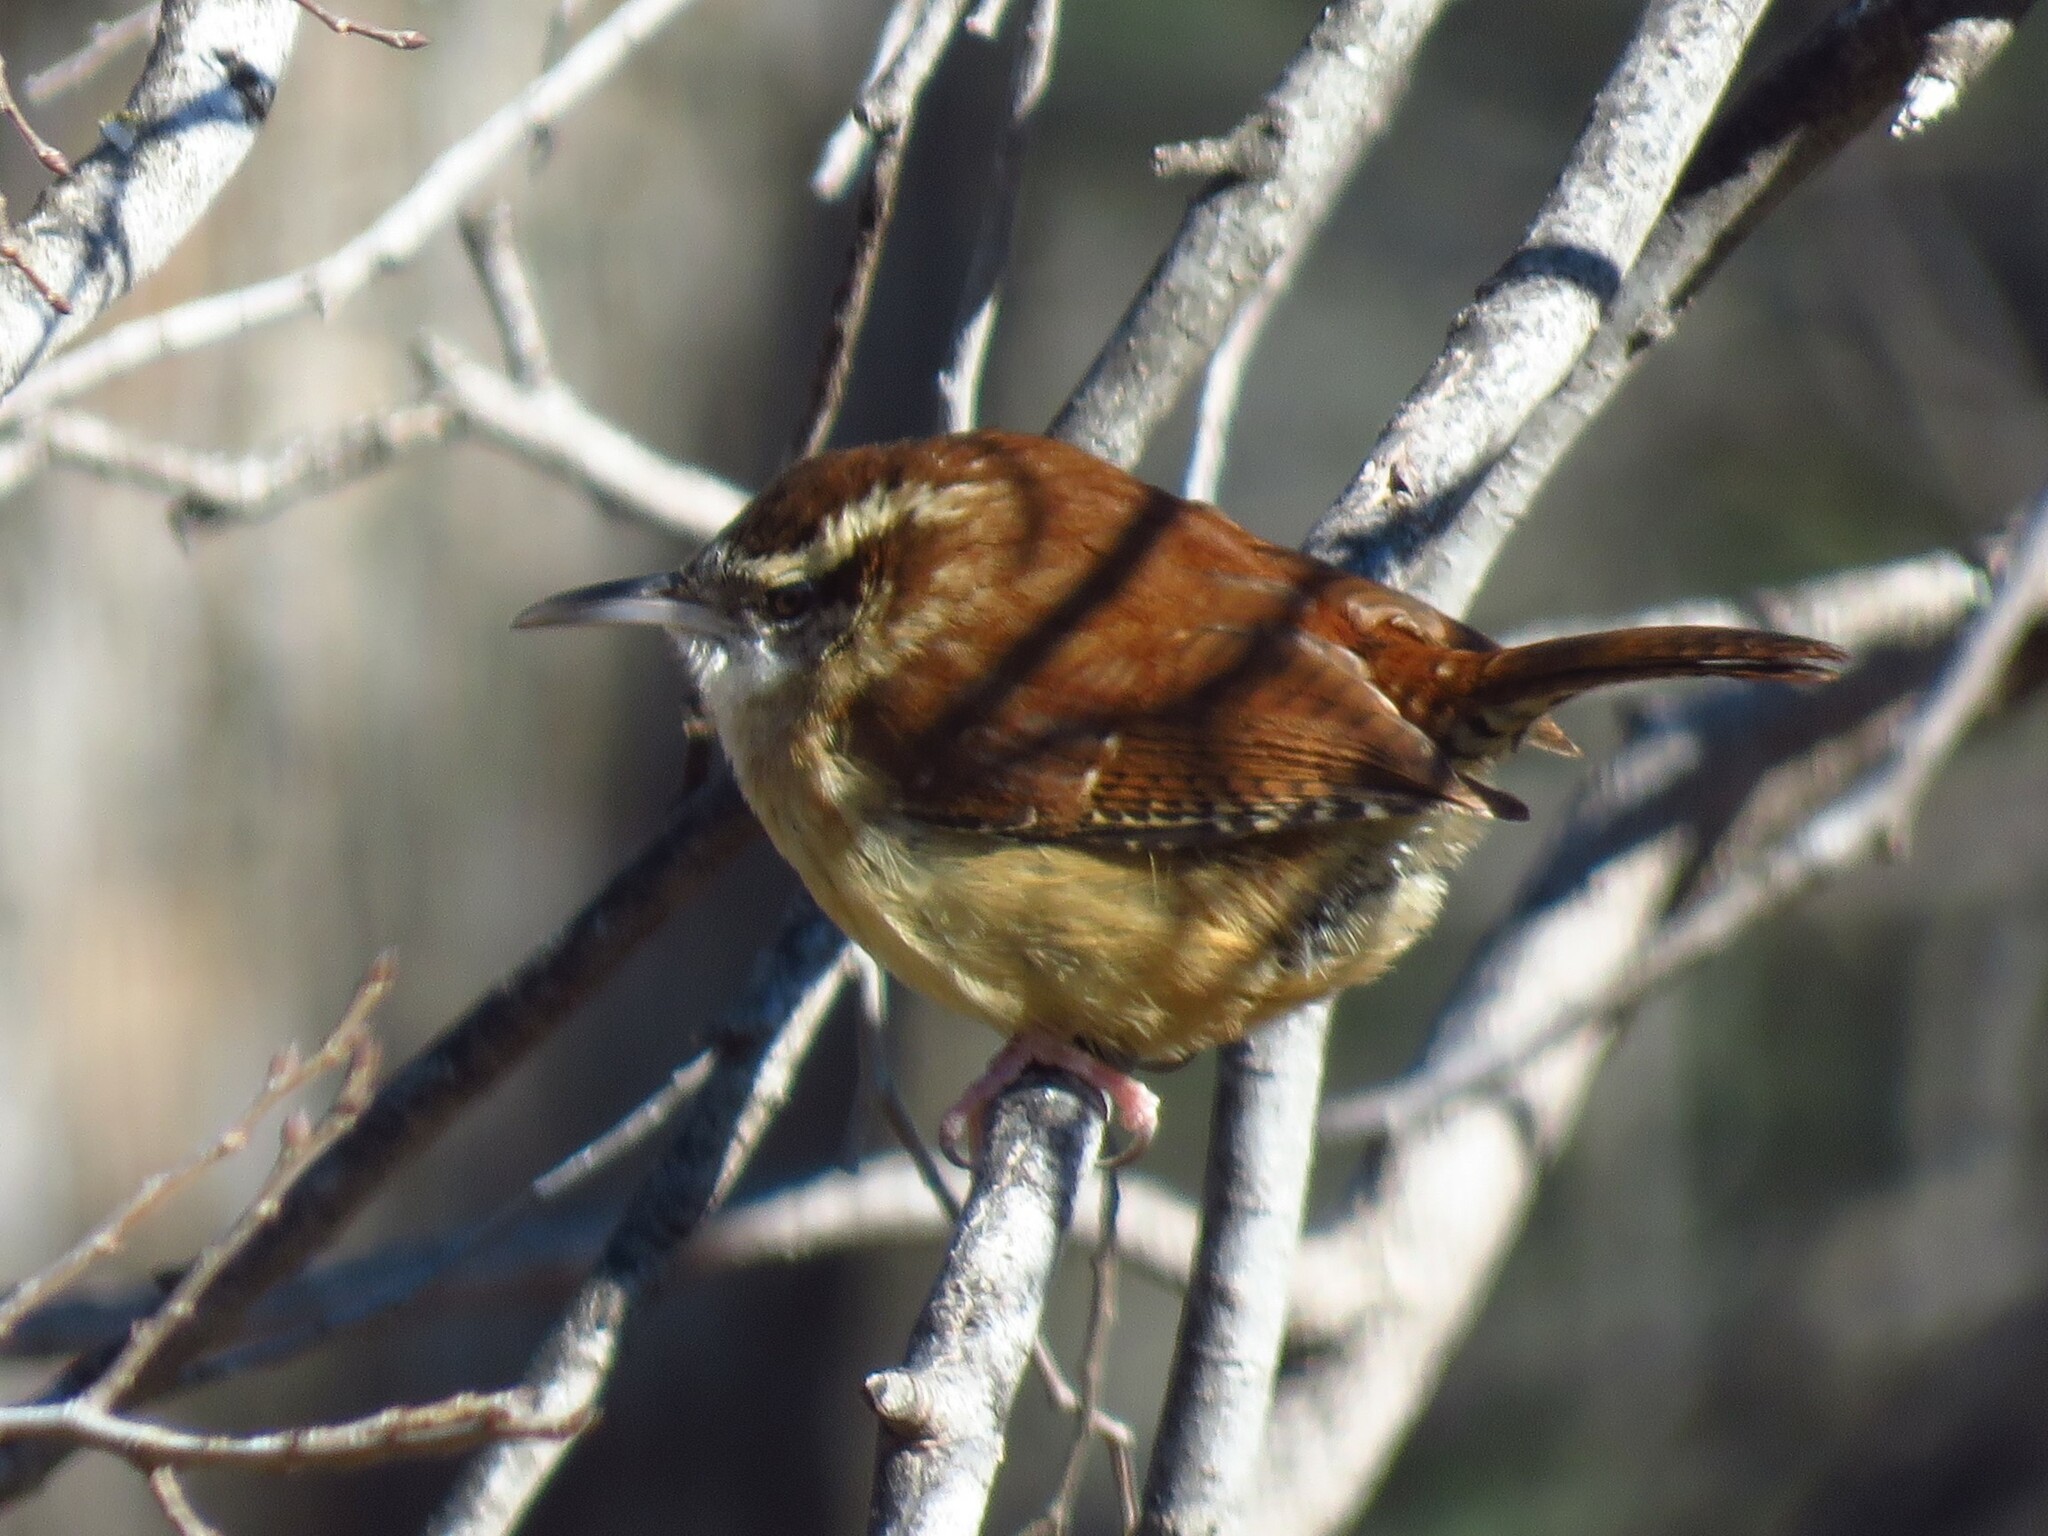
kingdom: Animalia
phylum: Chordata
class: Aves
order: Passeriformes
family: Troglodytidae
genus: Thryothorus
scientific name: Thryothorus ludovicianus
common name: Carolina wren
